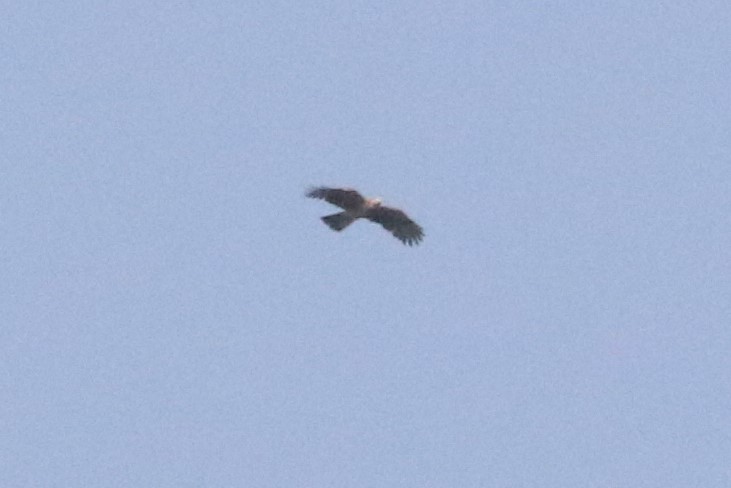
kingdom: Animalia
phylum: Chordata
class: Aves
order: Accipitriformes
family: Accipitridae
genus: Nisaetus
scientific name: Nisaetus nipalensis
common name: Mountain hawk-eagle
